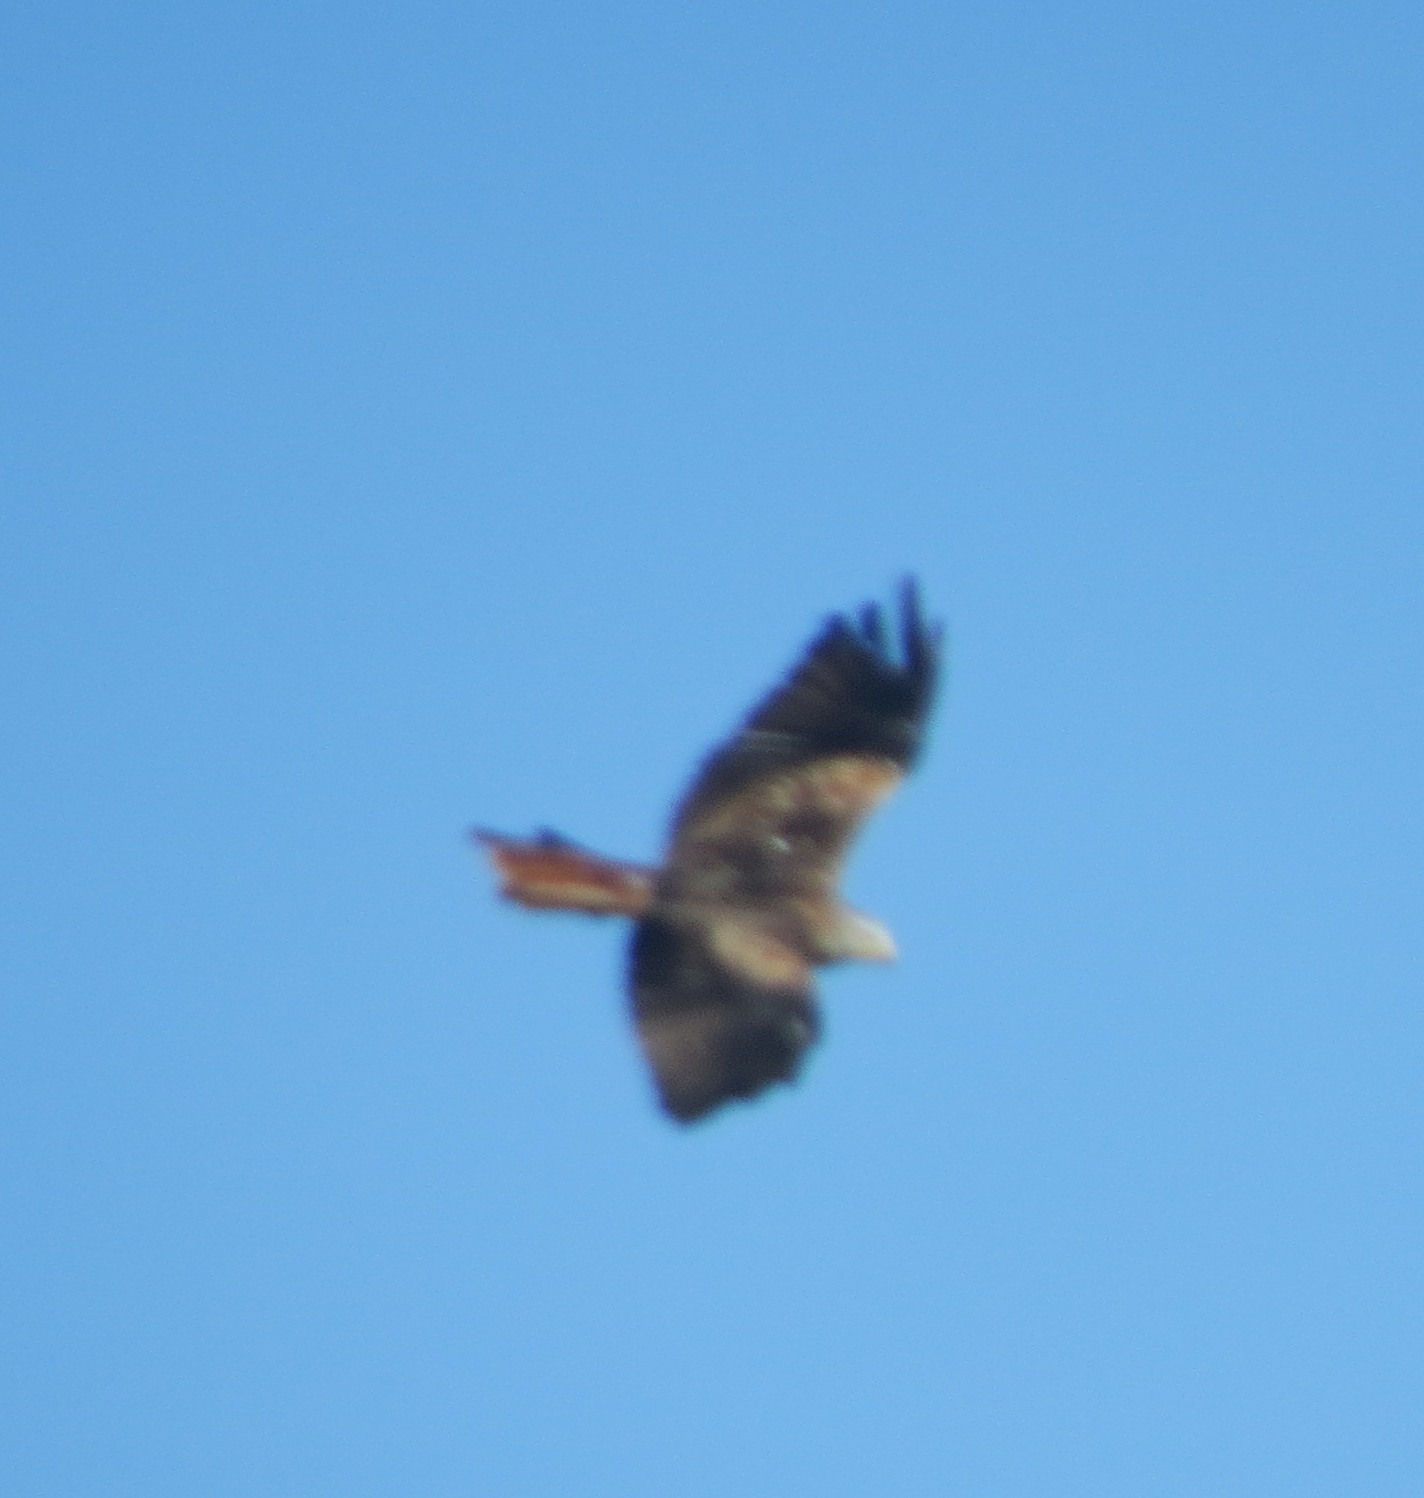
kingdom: Animalia
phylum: Chordata
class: Aves
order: Accipitriformes
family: Accipitridae
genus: Milvus
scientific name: Milvus milvus
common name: Red kite
